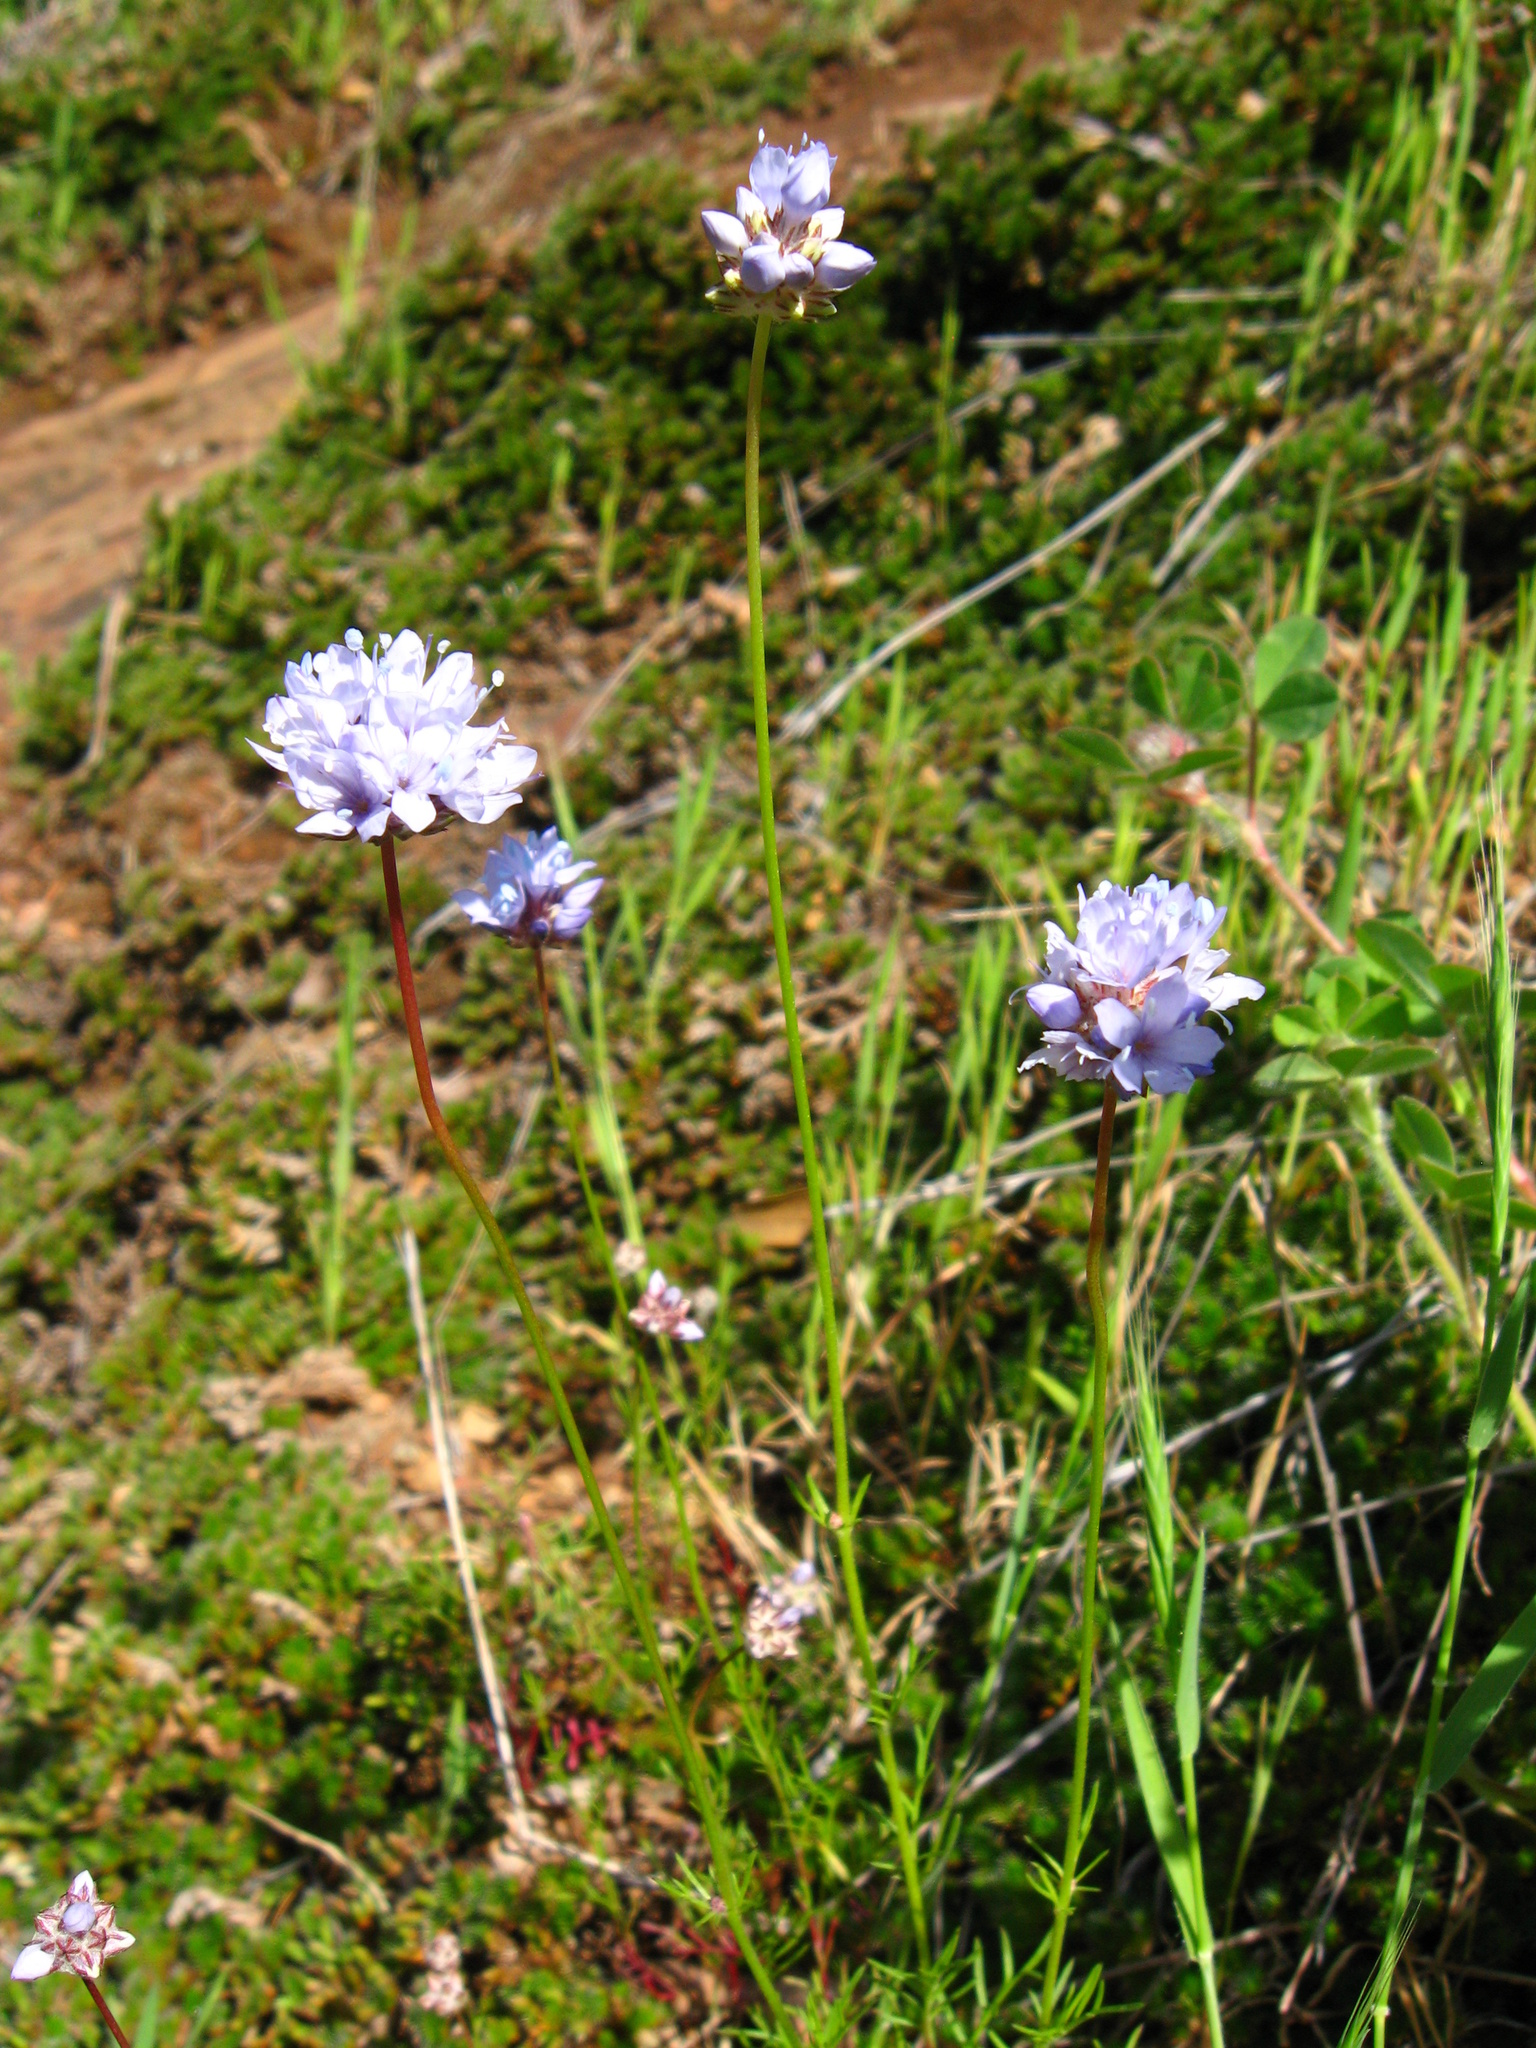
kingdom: Plantae
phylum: Tracheophyta
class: Magnoliopsida
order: Ericales
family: Polemoniaceae
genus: Gilia
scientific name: Gilia capitata
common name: Bluehead gilia
